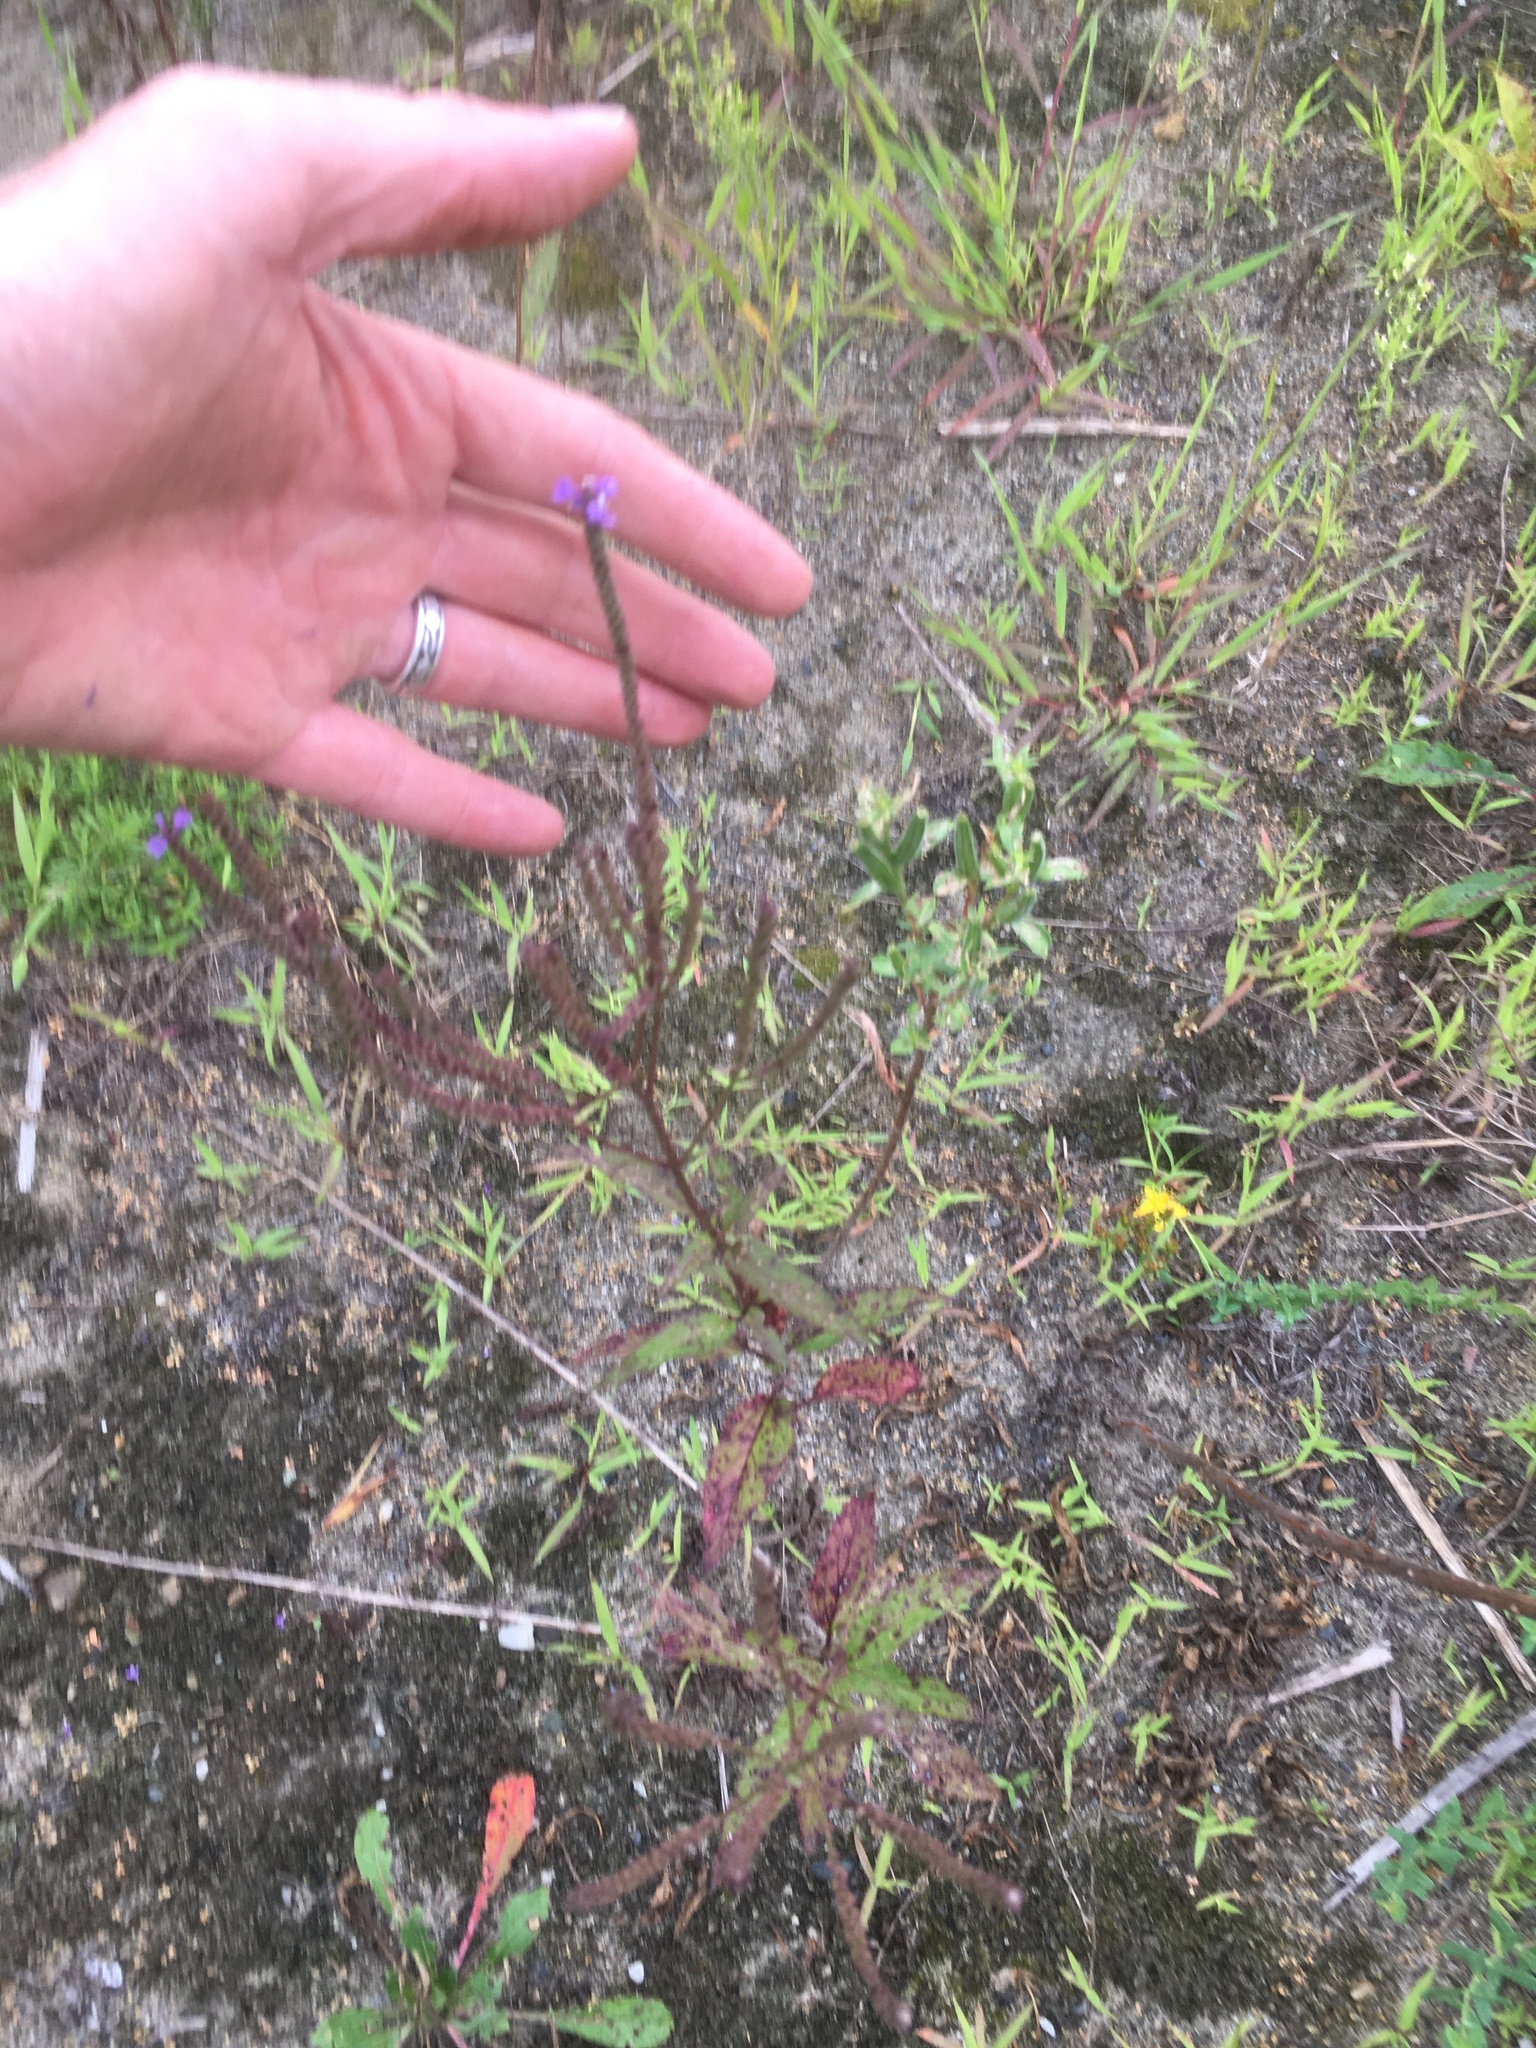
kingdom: Plantae
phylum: Tracheophyta
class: Magnoliopsida
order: Lamiales
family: Verbenaceae
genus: Verbena
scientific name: Verbena hastata
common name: American blue vervain
